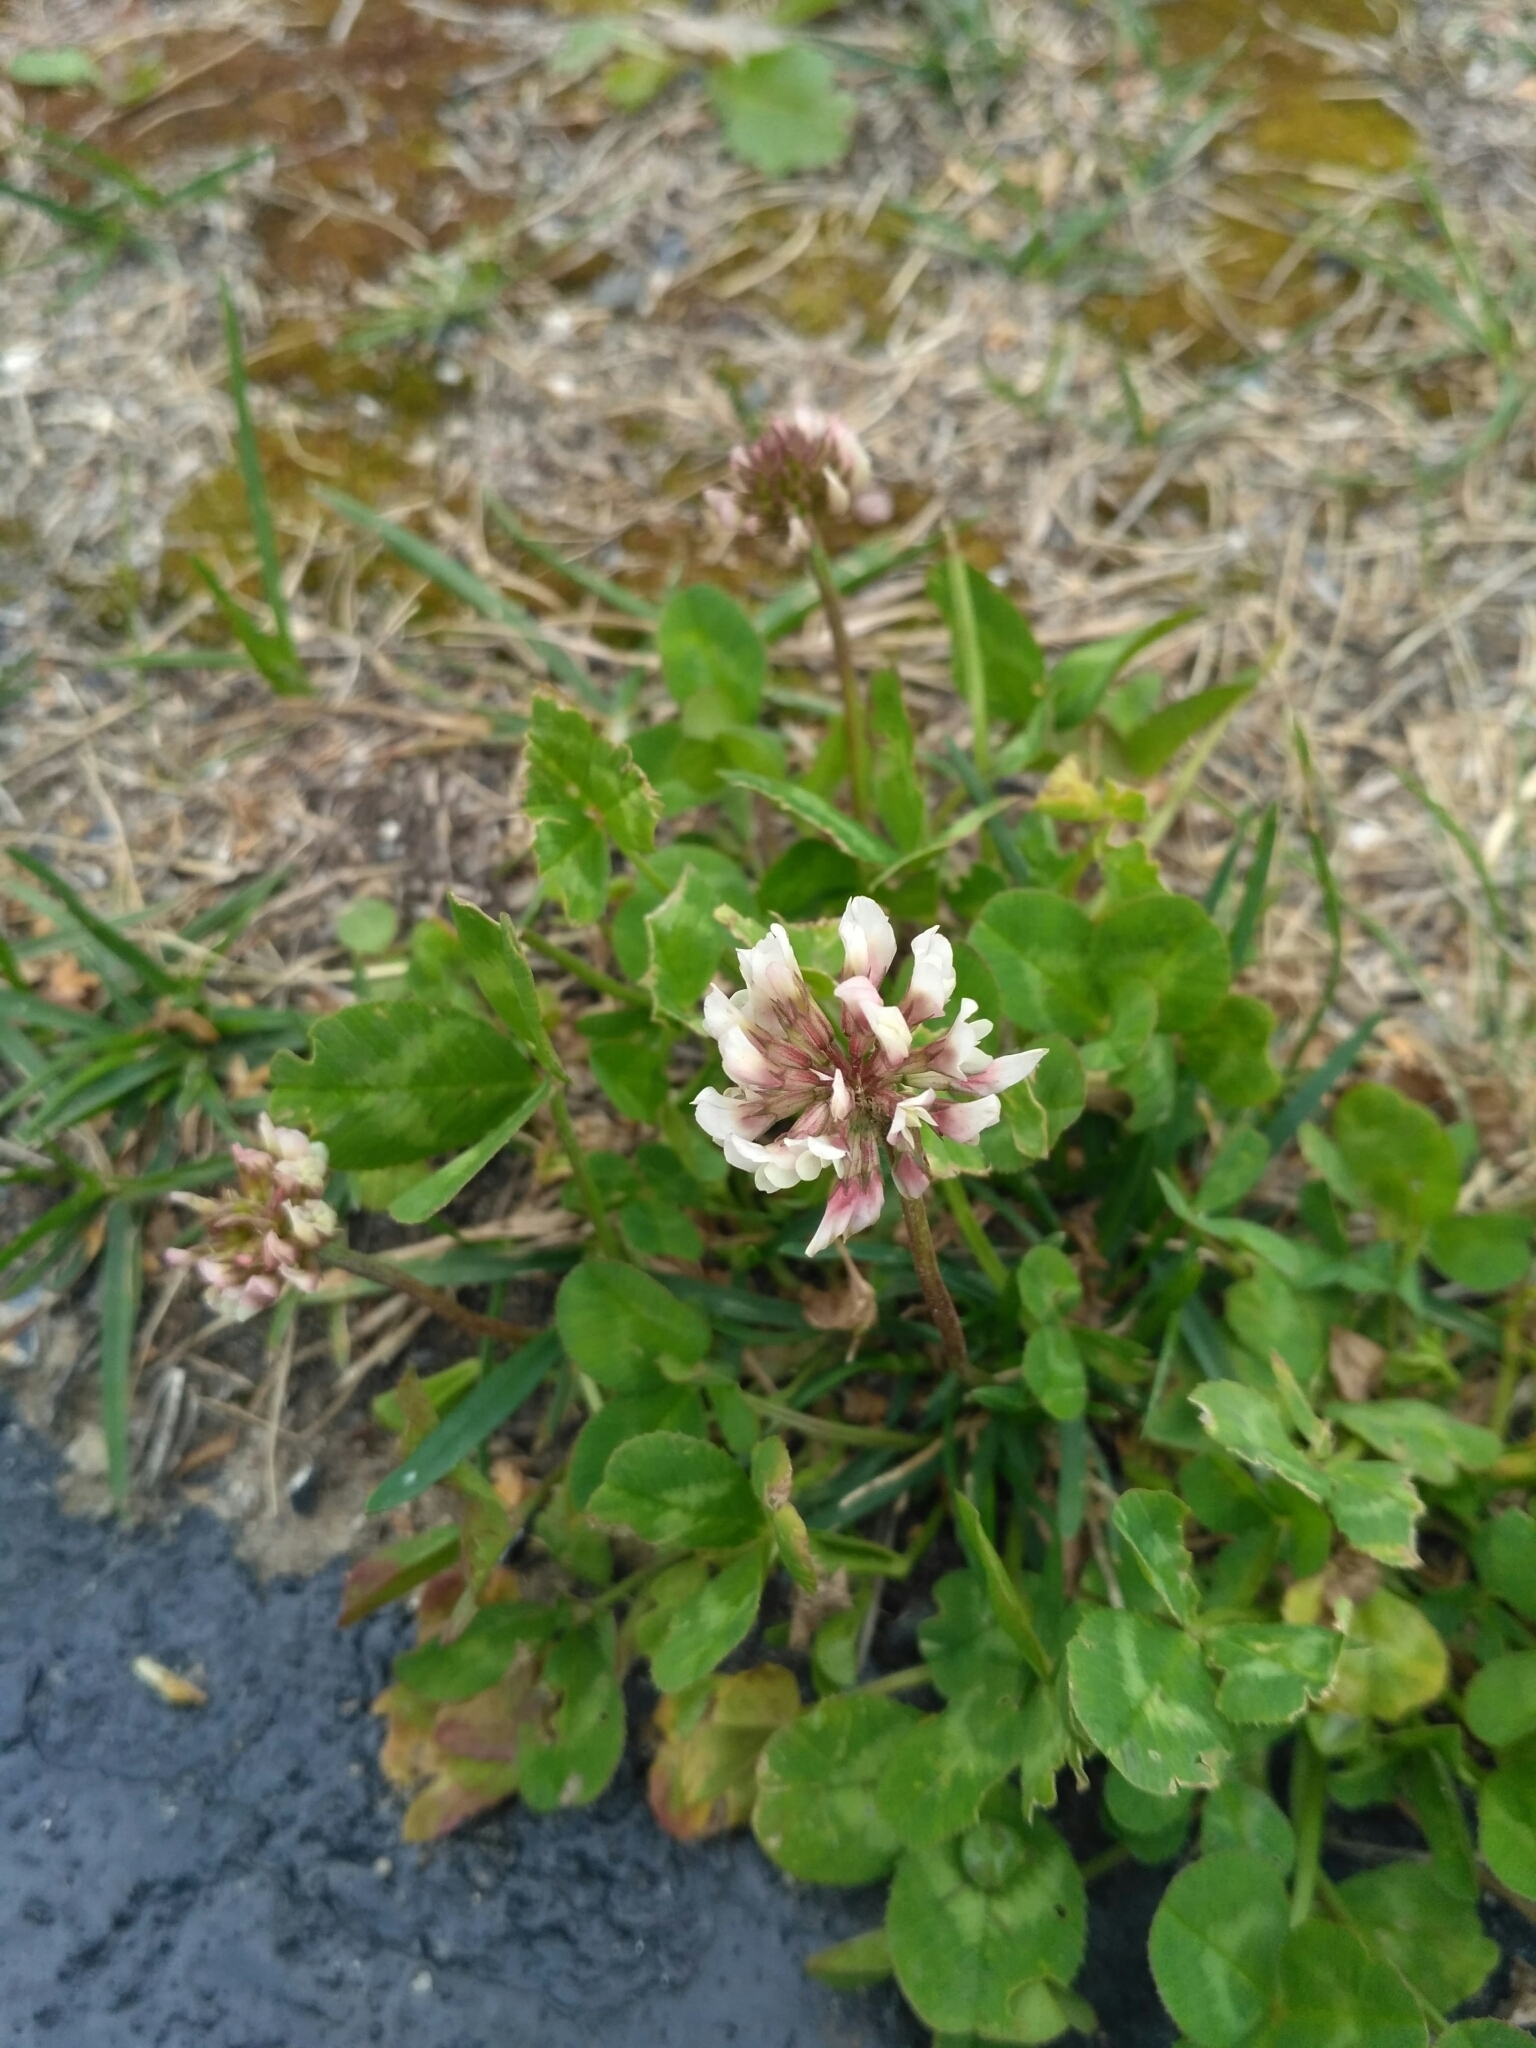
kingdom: Plantae
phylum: Tracheophyta
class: Magnoliopsida
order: Fabales
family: Fabaceae
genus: Trifolium
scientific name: Trifolium repens
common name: White clover
